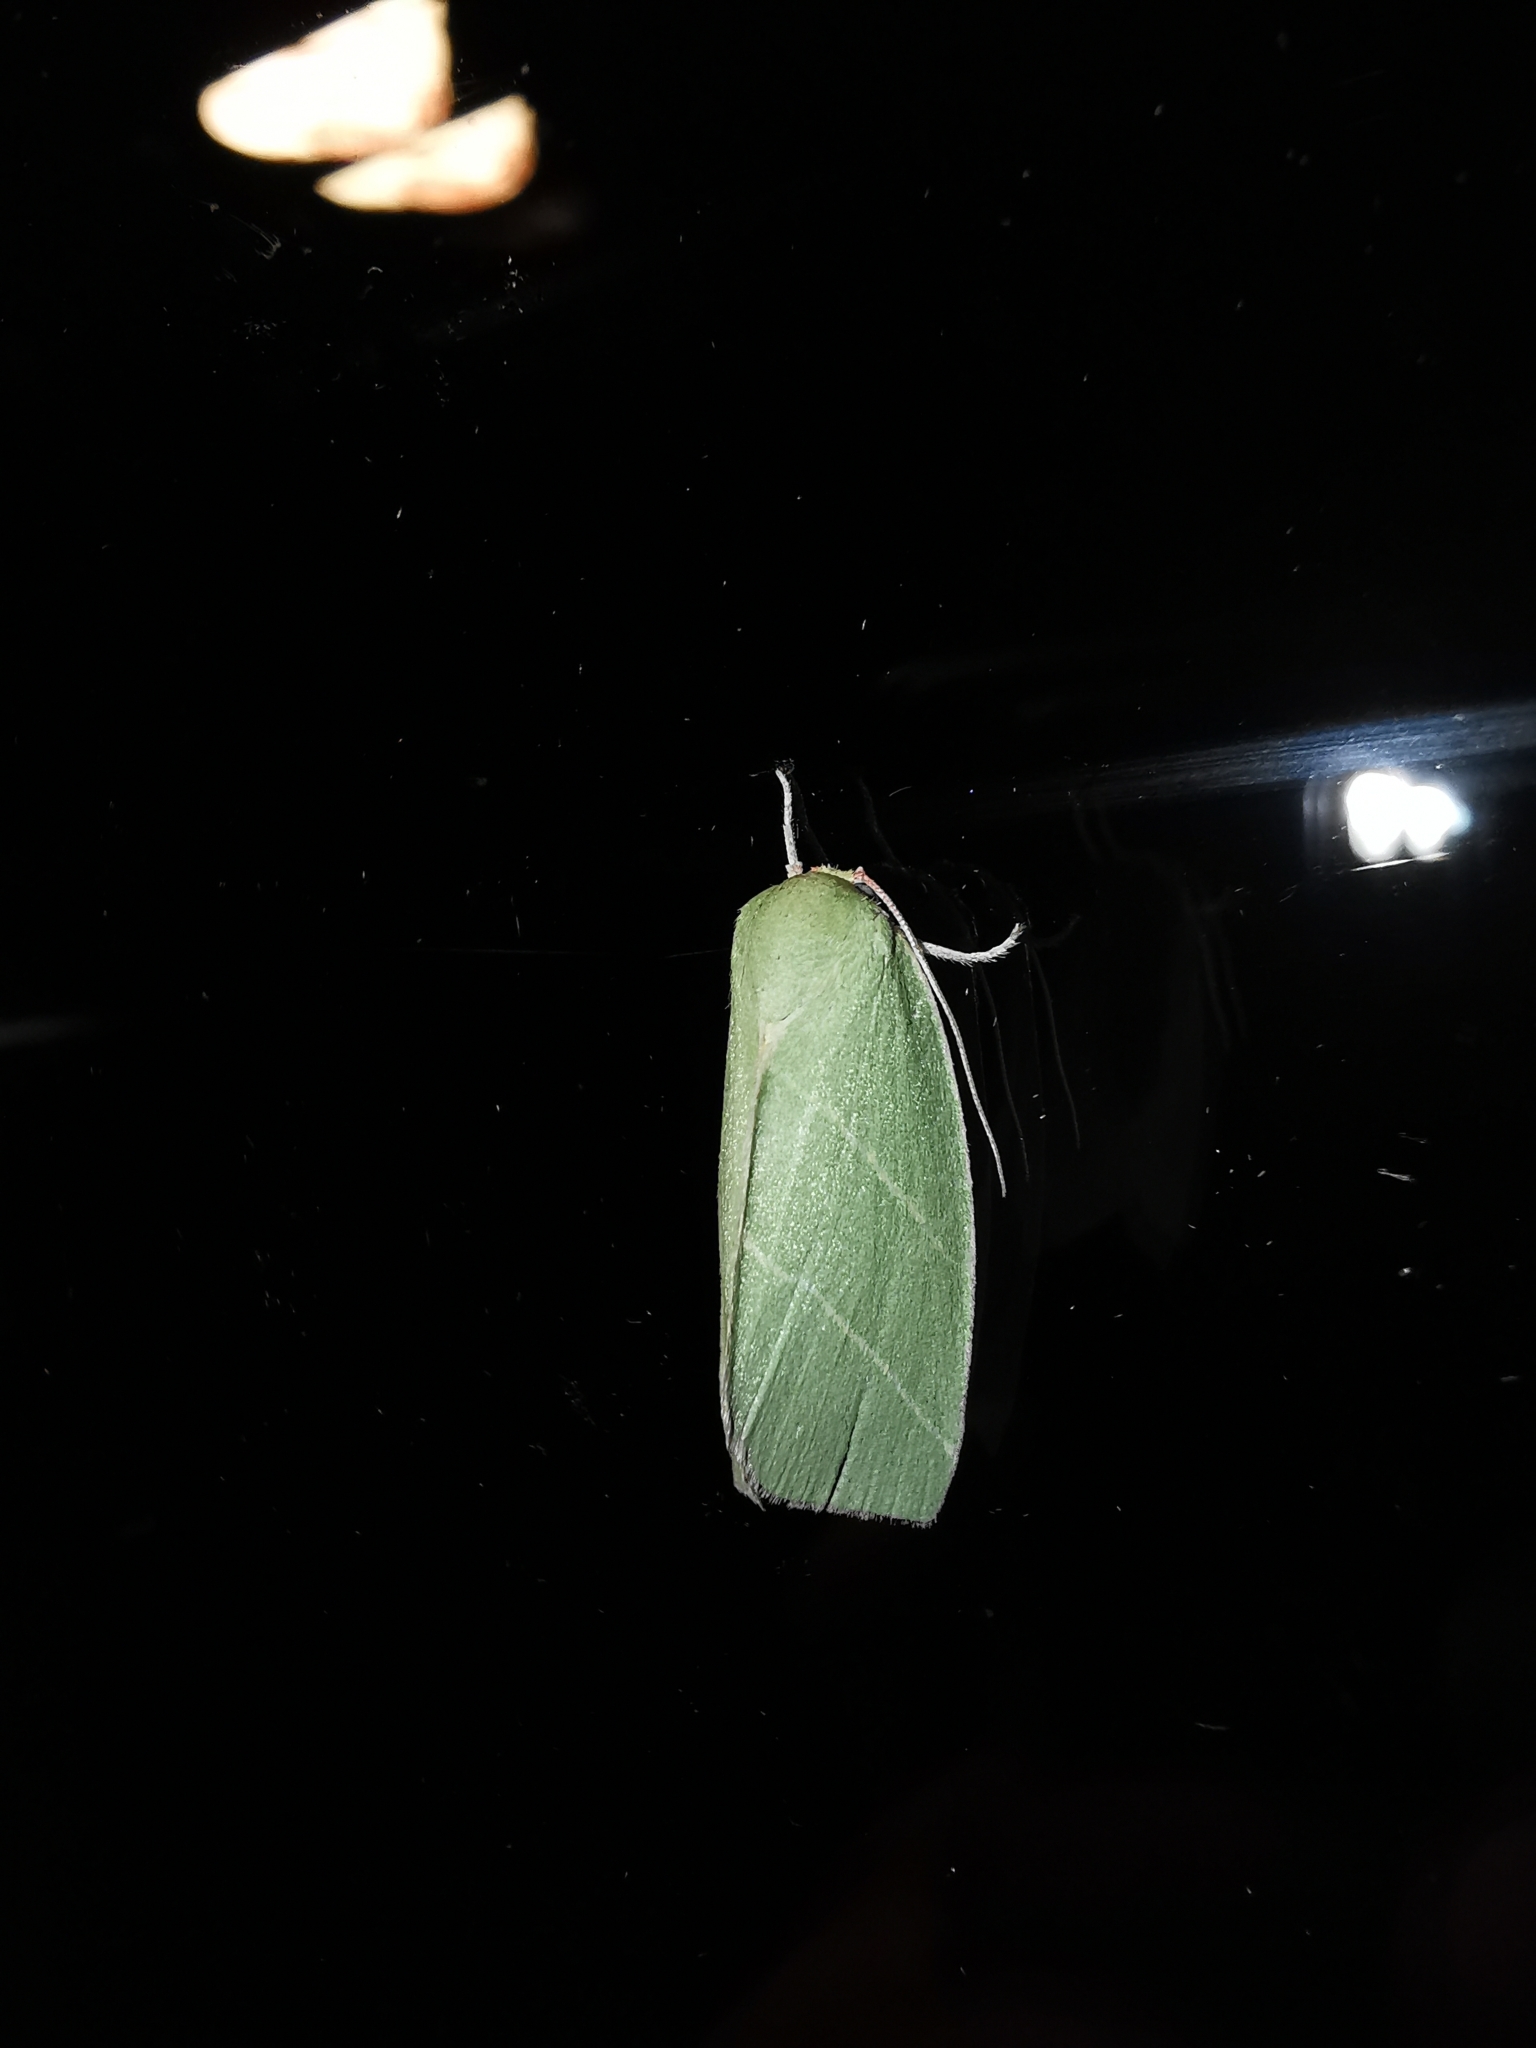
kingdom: Animalia
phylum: Arthropoda
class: Insecta
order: Lepidoptera
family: Nolidae
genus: Bena
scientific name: Bena bicolorana
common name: Scarce silver-lines
